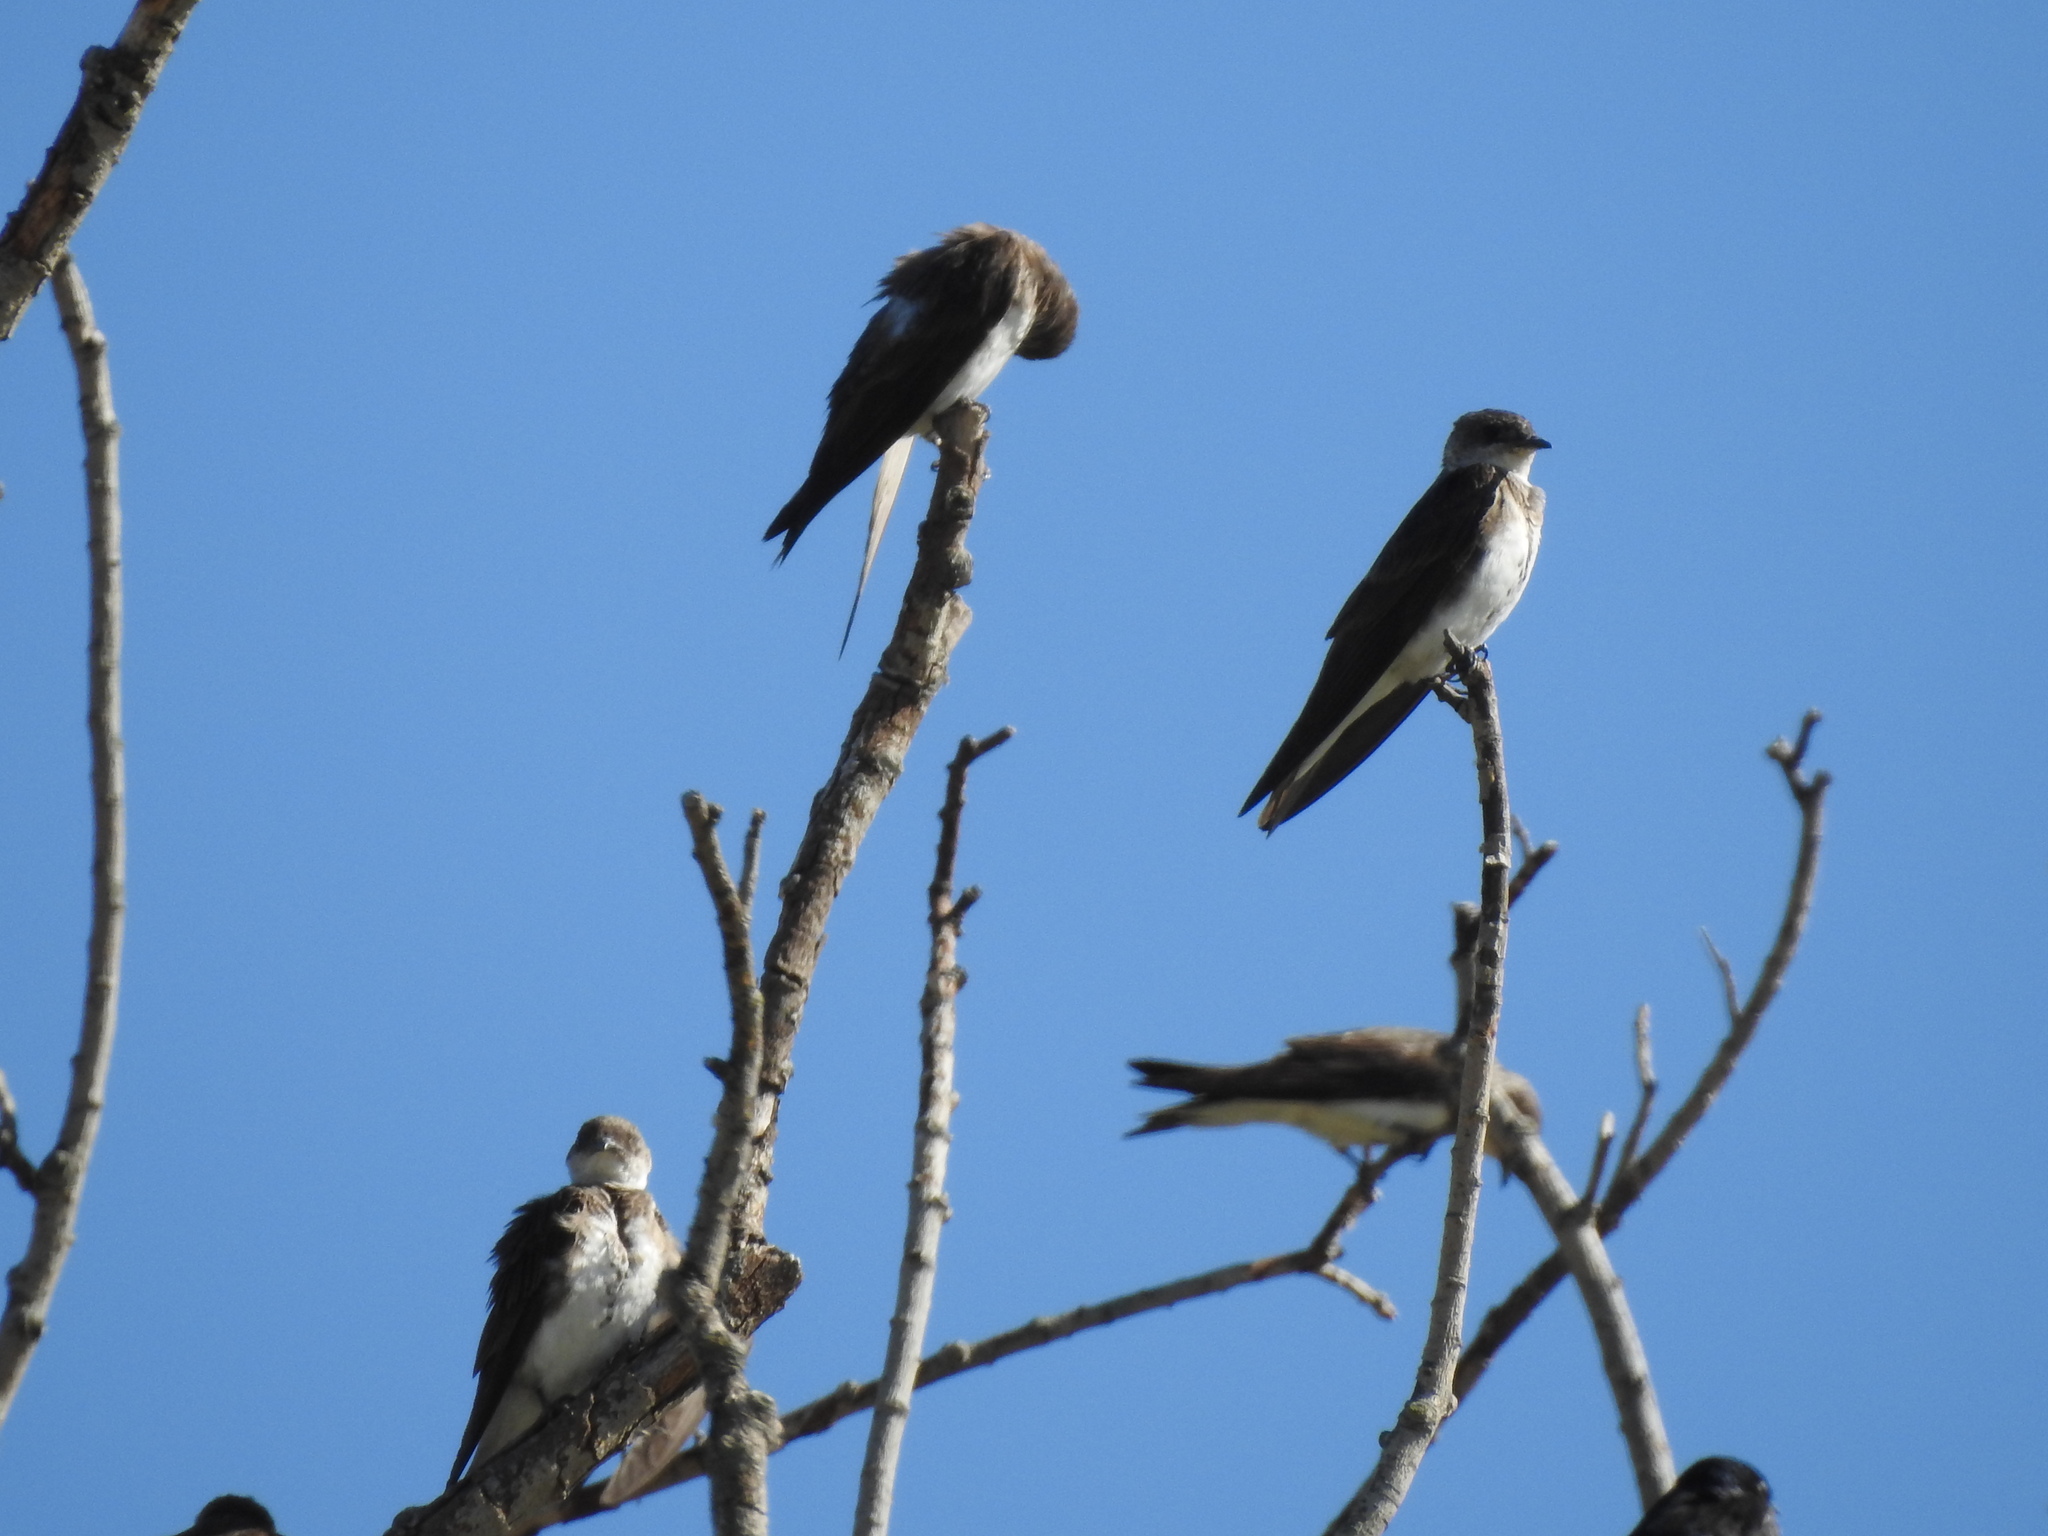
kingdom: Animalia
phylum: Chordata
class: Aves
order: Passeriformes
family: Hirundinidae
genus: Progne
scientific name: Progne tapera
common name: Brown-chested martin
